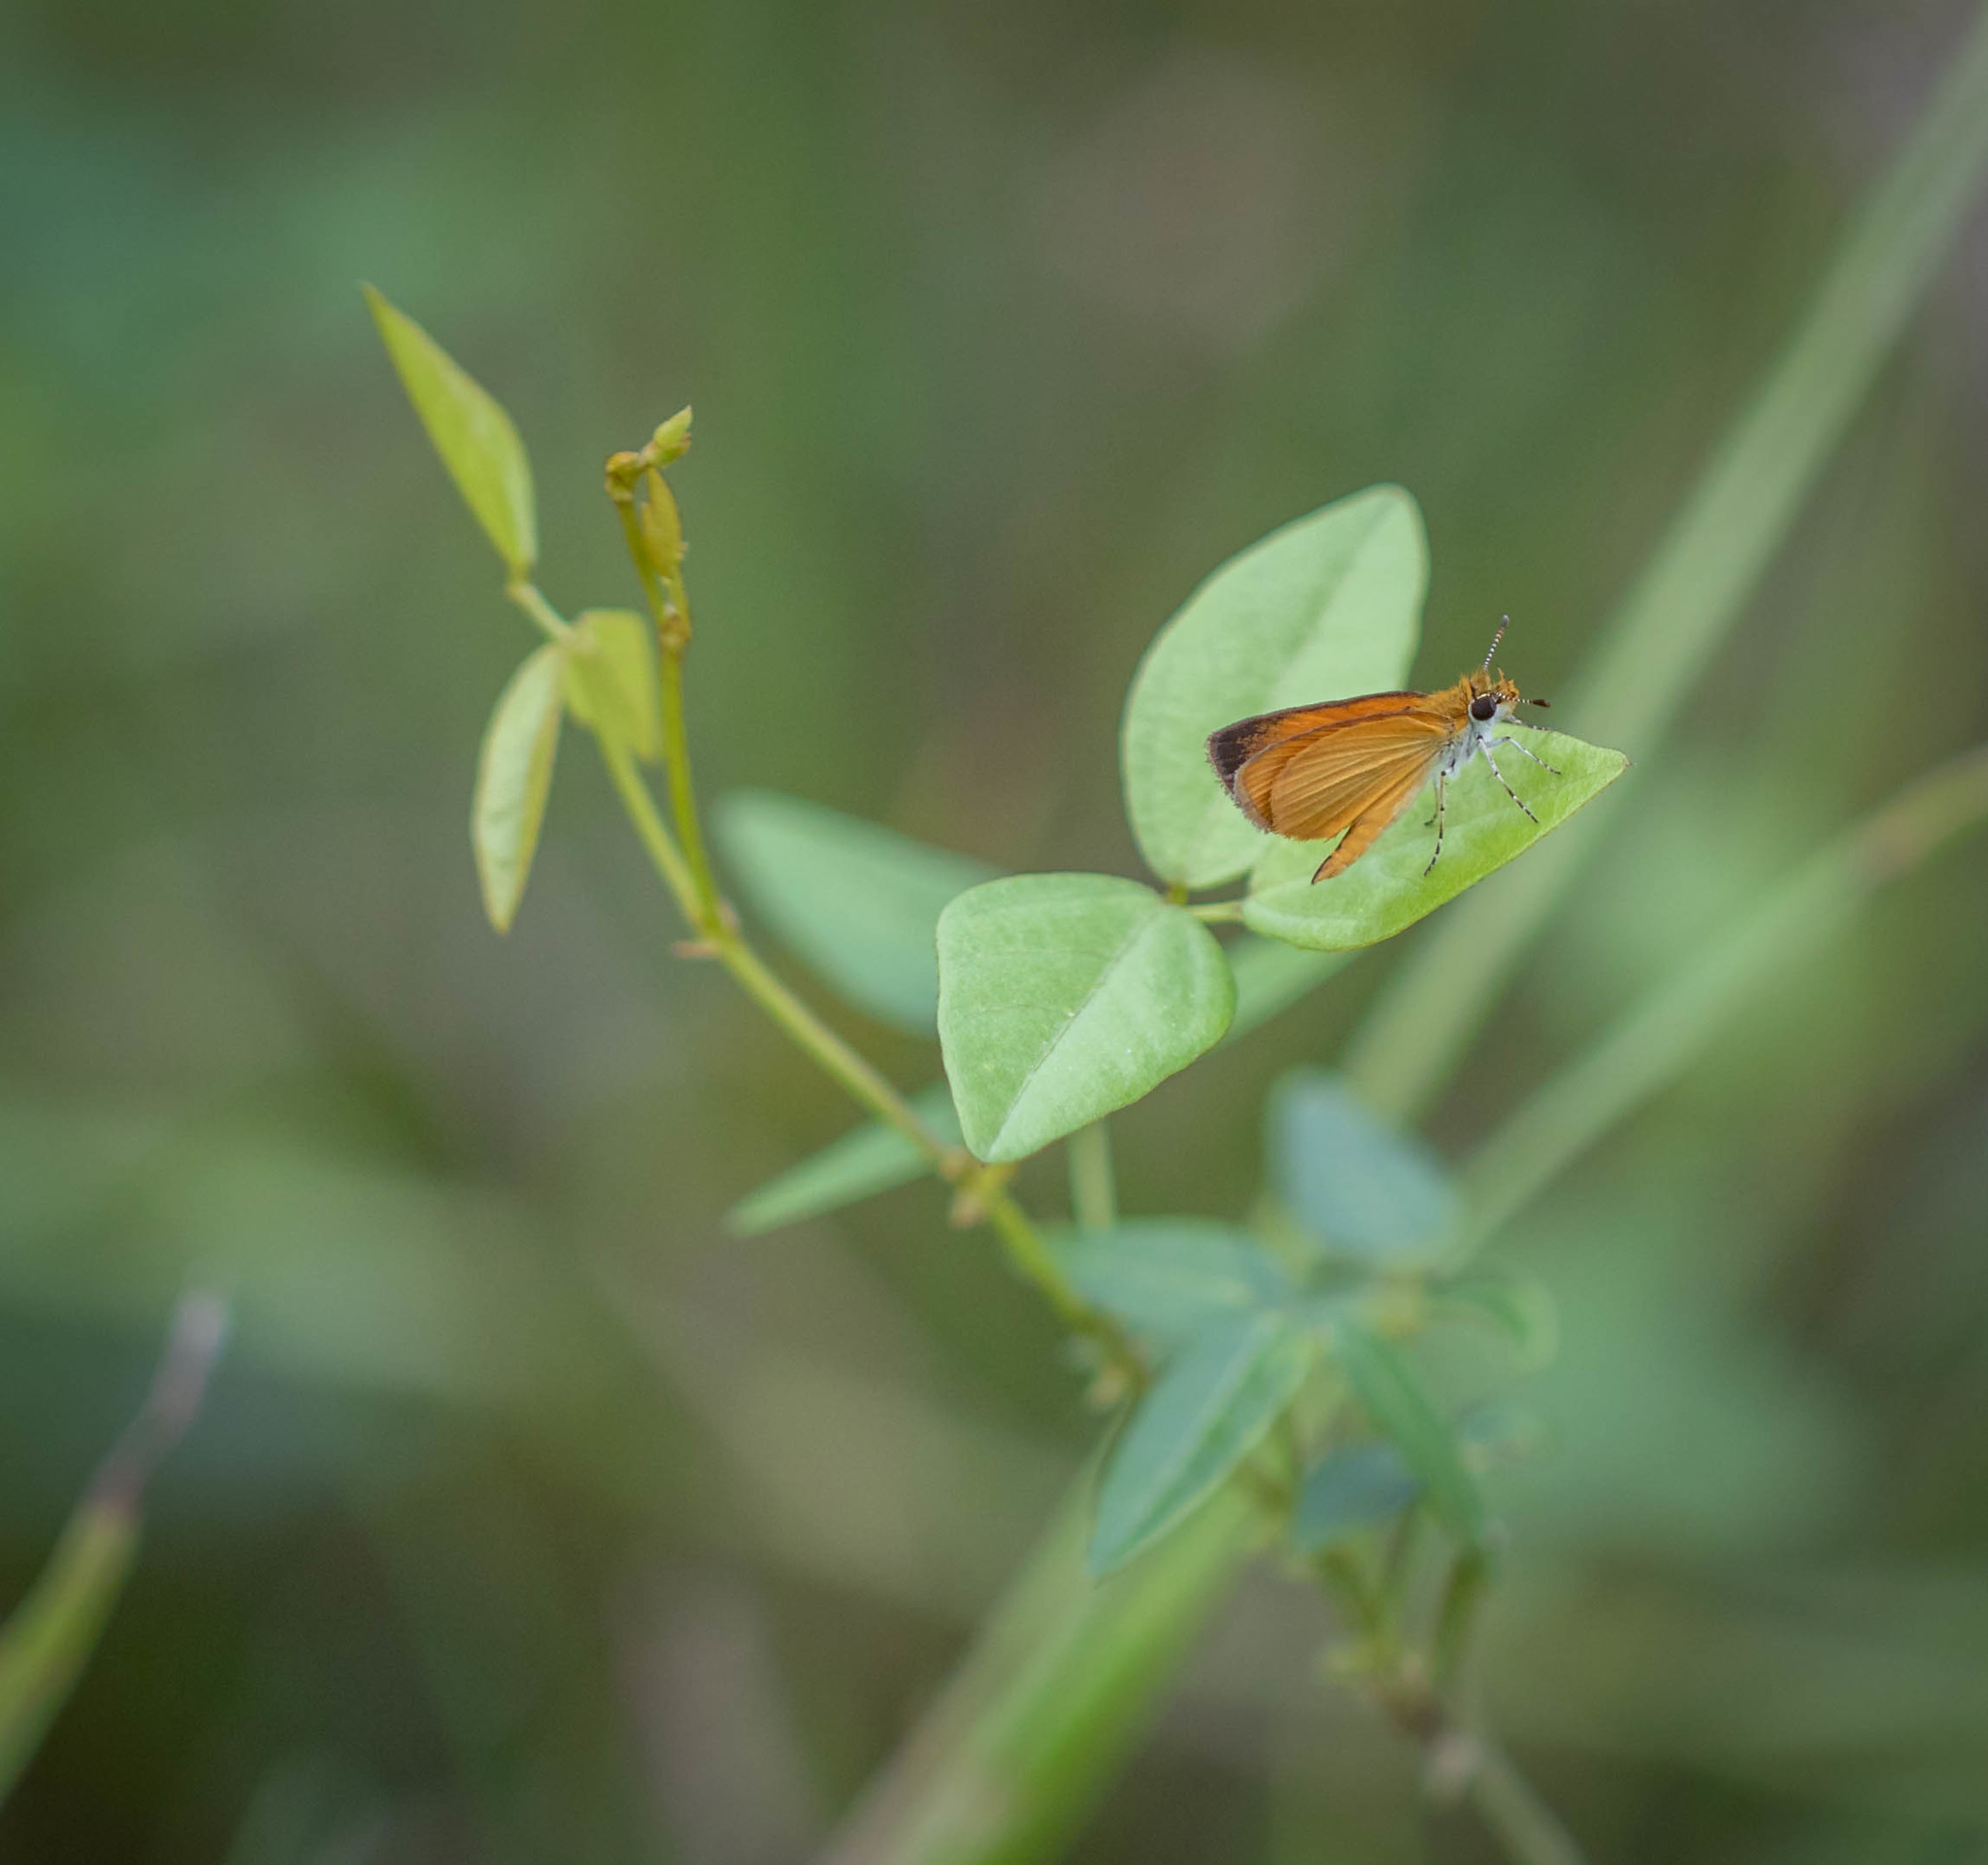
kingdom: Animalia
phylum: Arthropoda
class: Insecta
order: Lepidoptera
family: Hesperiidae
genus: Ancyloxypha
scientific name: Ancyloxypha numitor
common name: Least skipper
